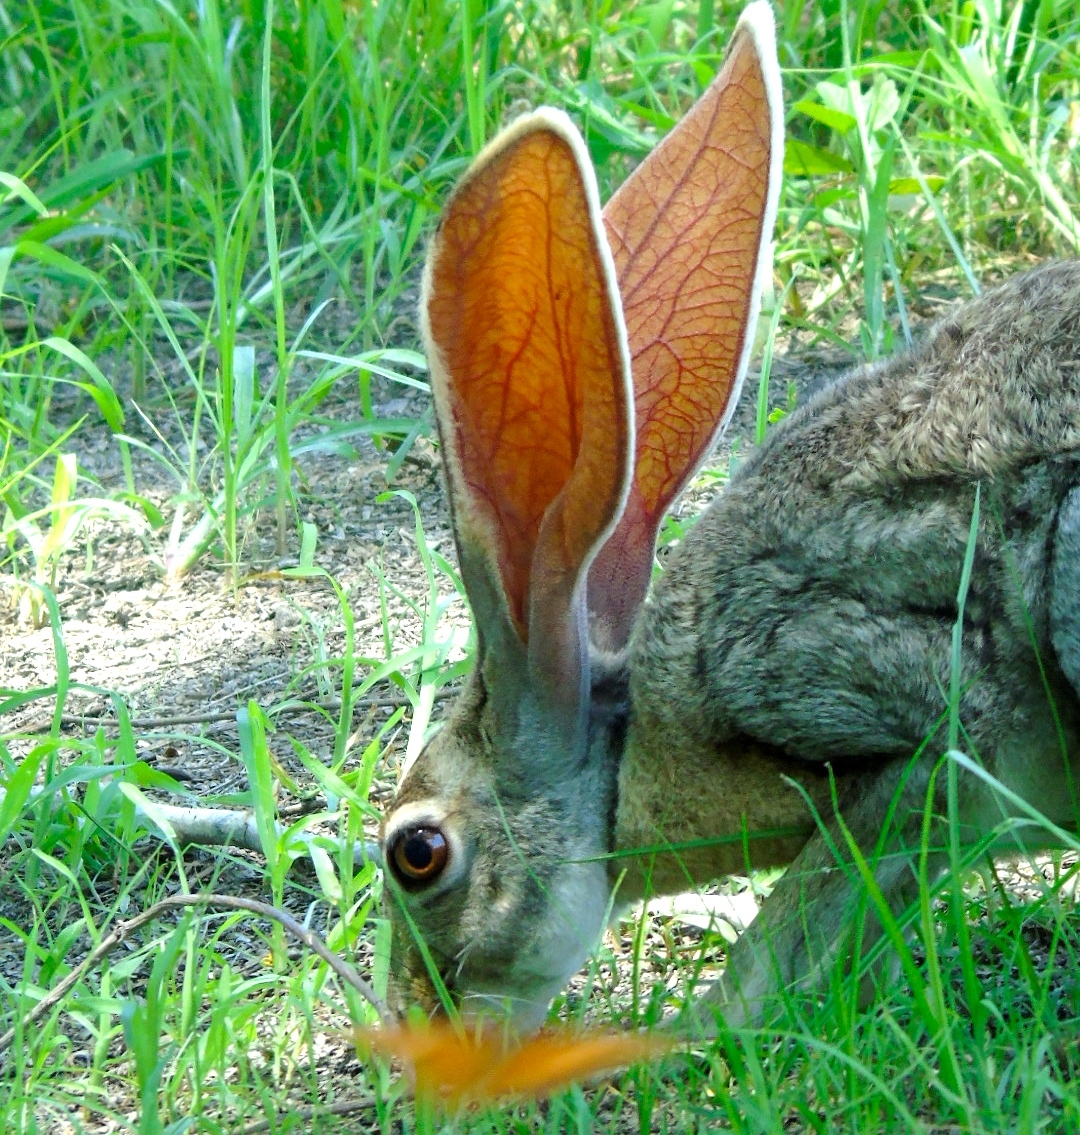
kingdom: Animalia
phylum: Chordata
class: Mammalia
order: Lagomorpha
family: Leporidae
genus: Lepus
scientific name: Lepus alleni
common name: Antelope jackrabbit
